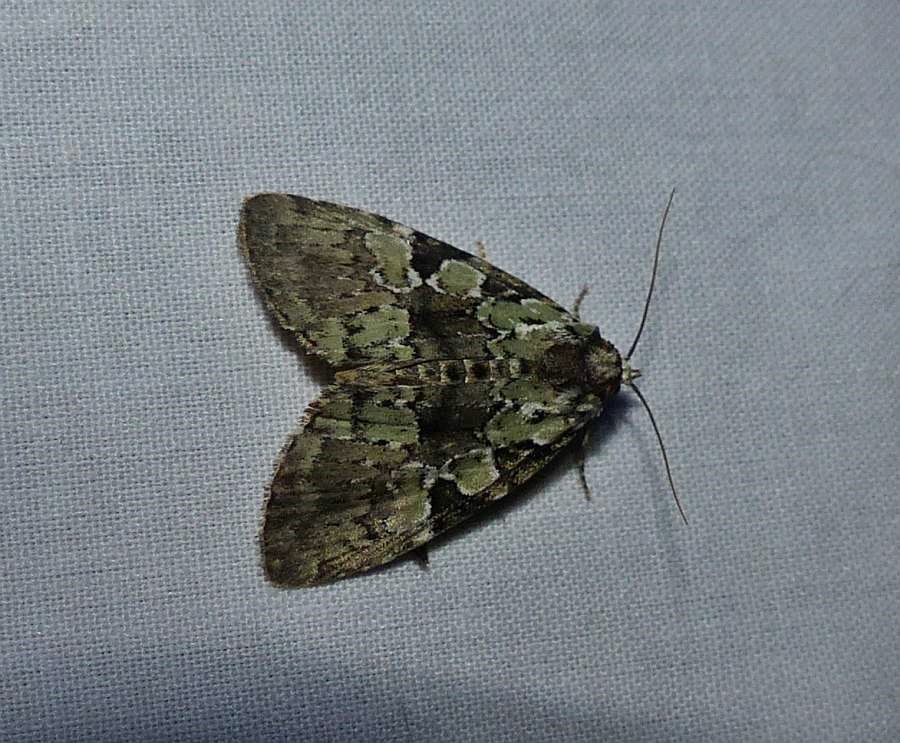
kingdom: Animalia
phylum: Arthropoda
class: Insecta
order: Lepidoptera
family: Noctuidae
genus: Leuconycta
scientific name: Leuconycta lepidula
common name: Marbled-green leuconycta moth
